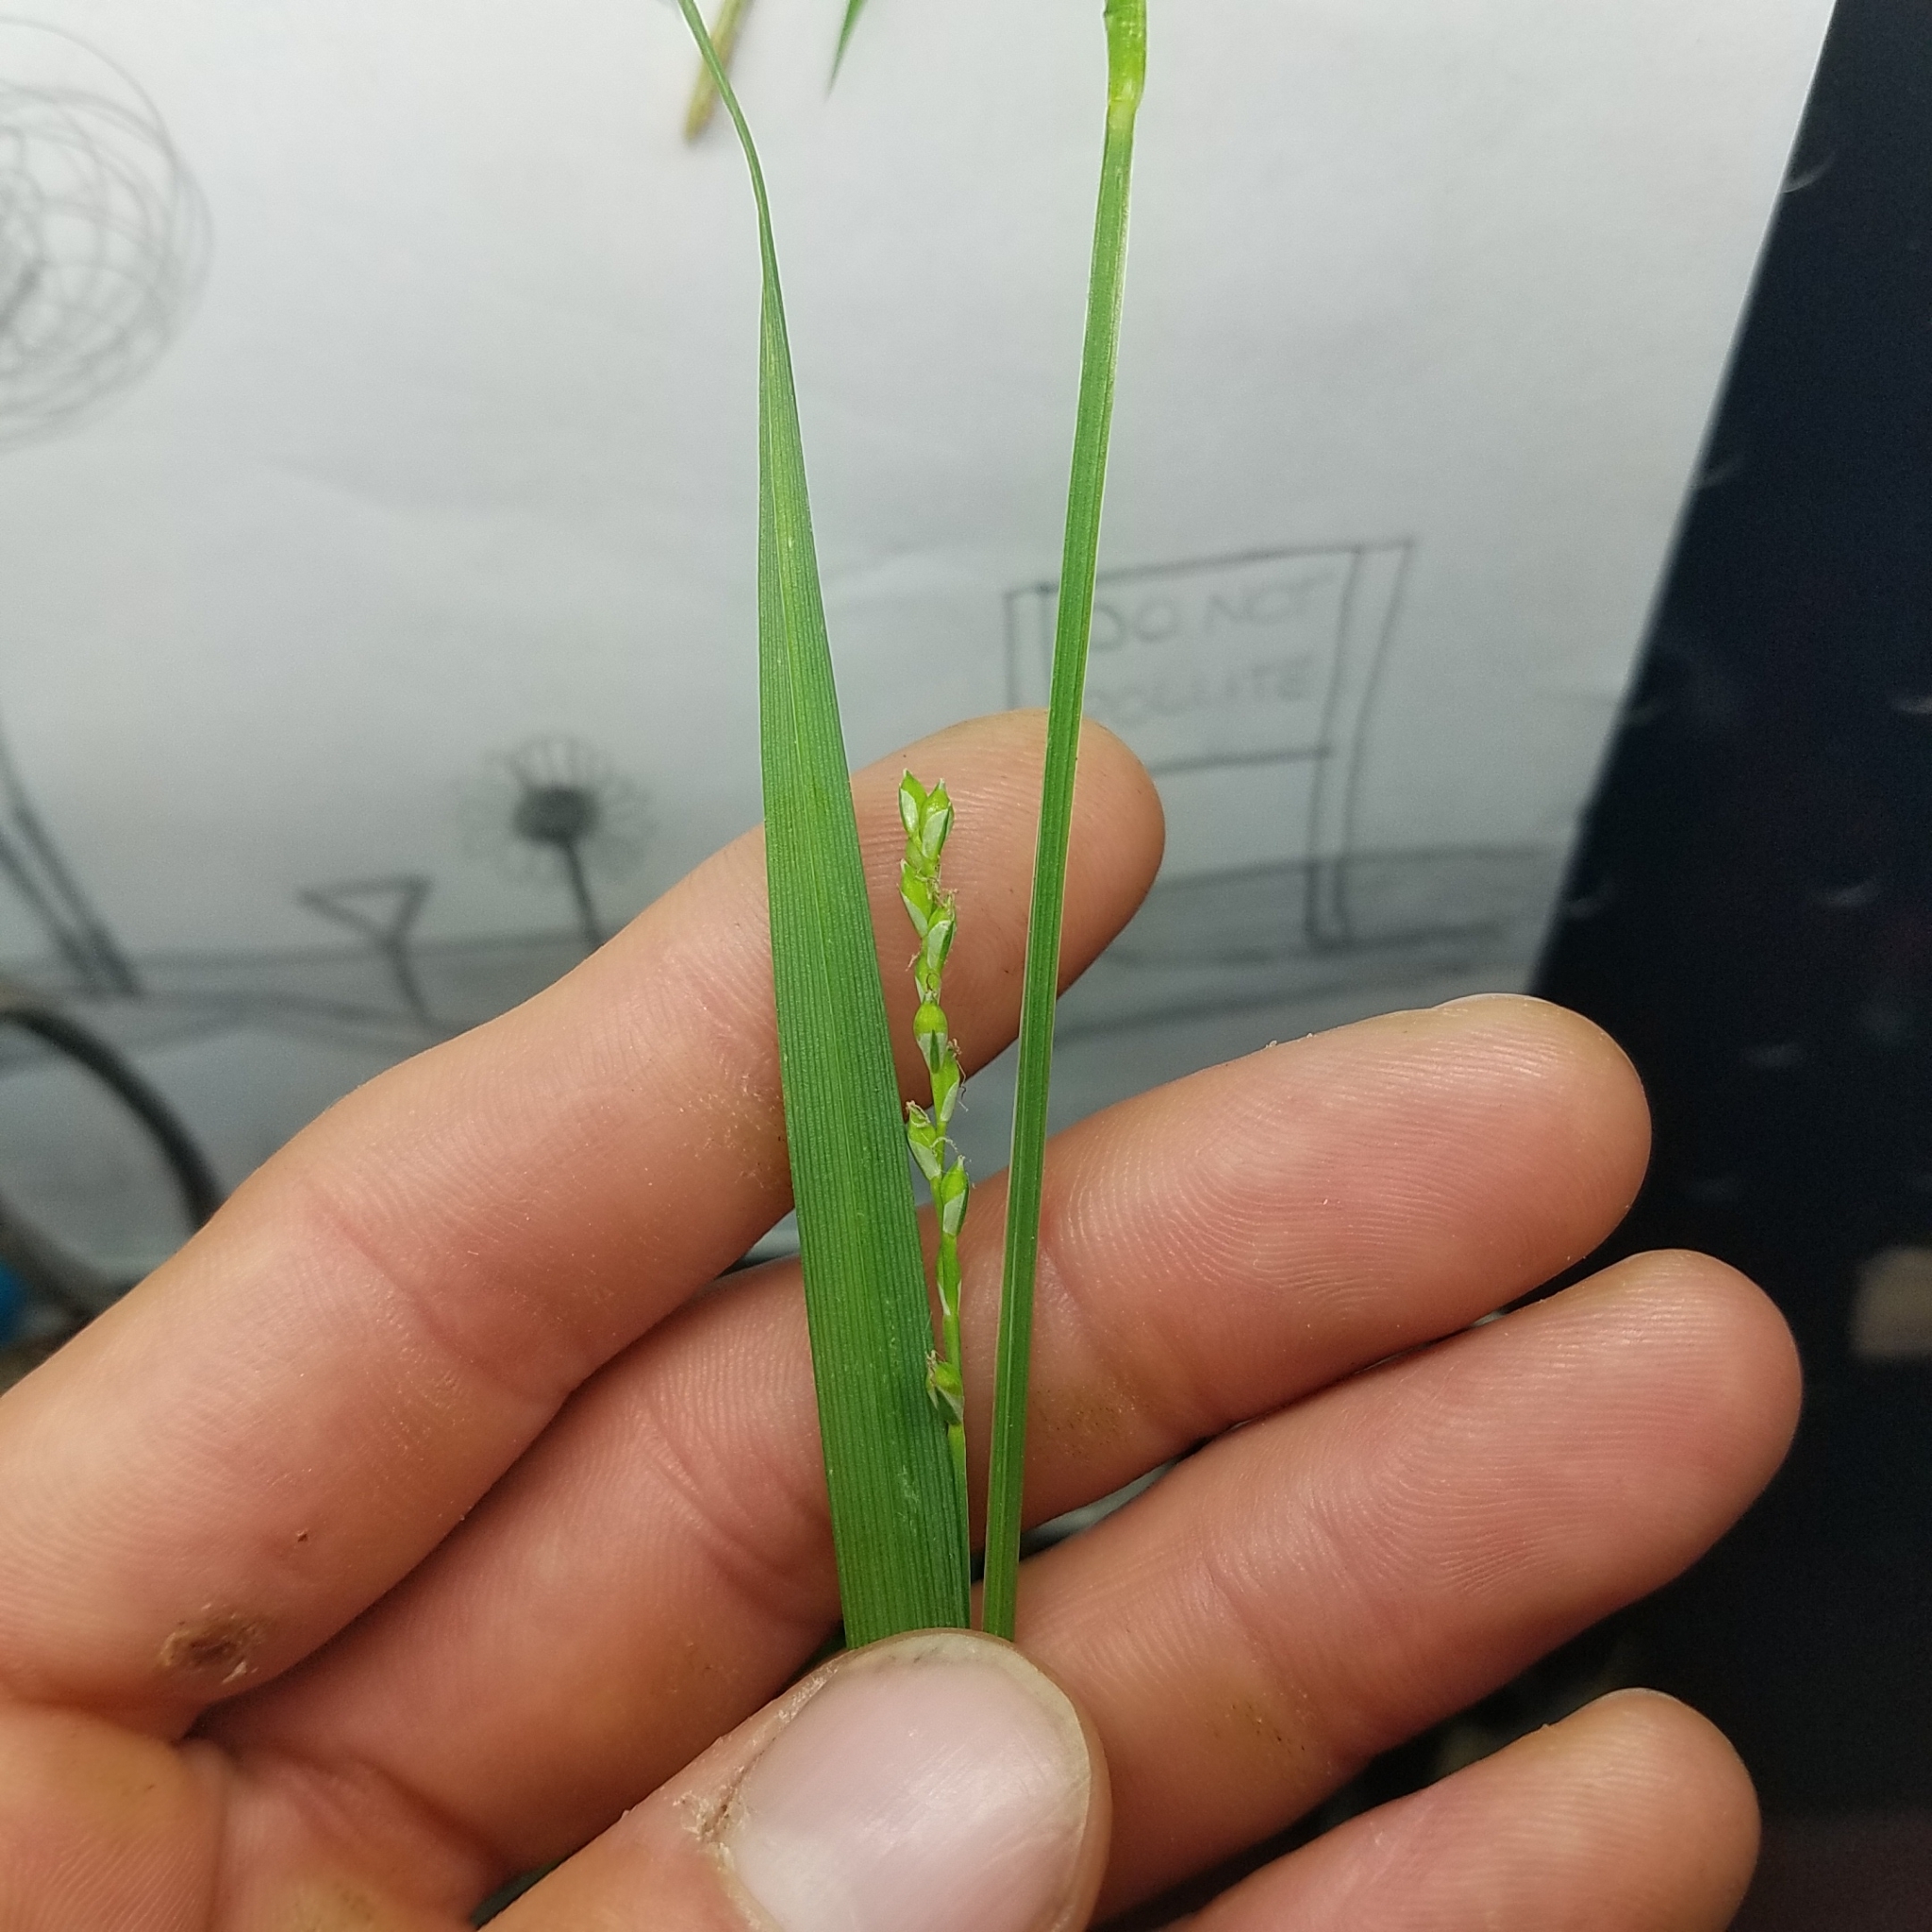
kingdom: Plantae
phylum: Tracheophyta
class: Liliopsida
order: Poales
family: Cyperaceae
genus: Carex
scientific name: Carex laxiflora
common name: Beech wood sedge
